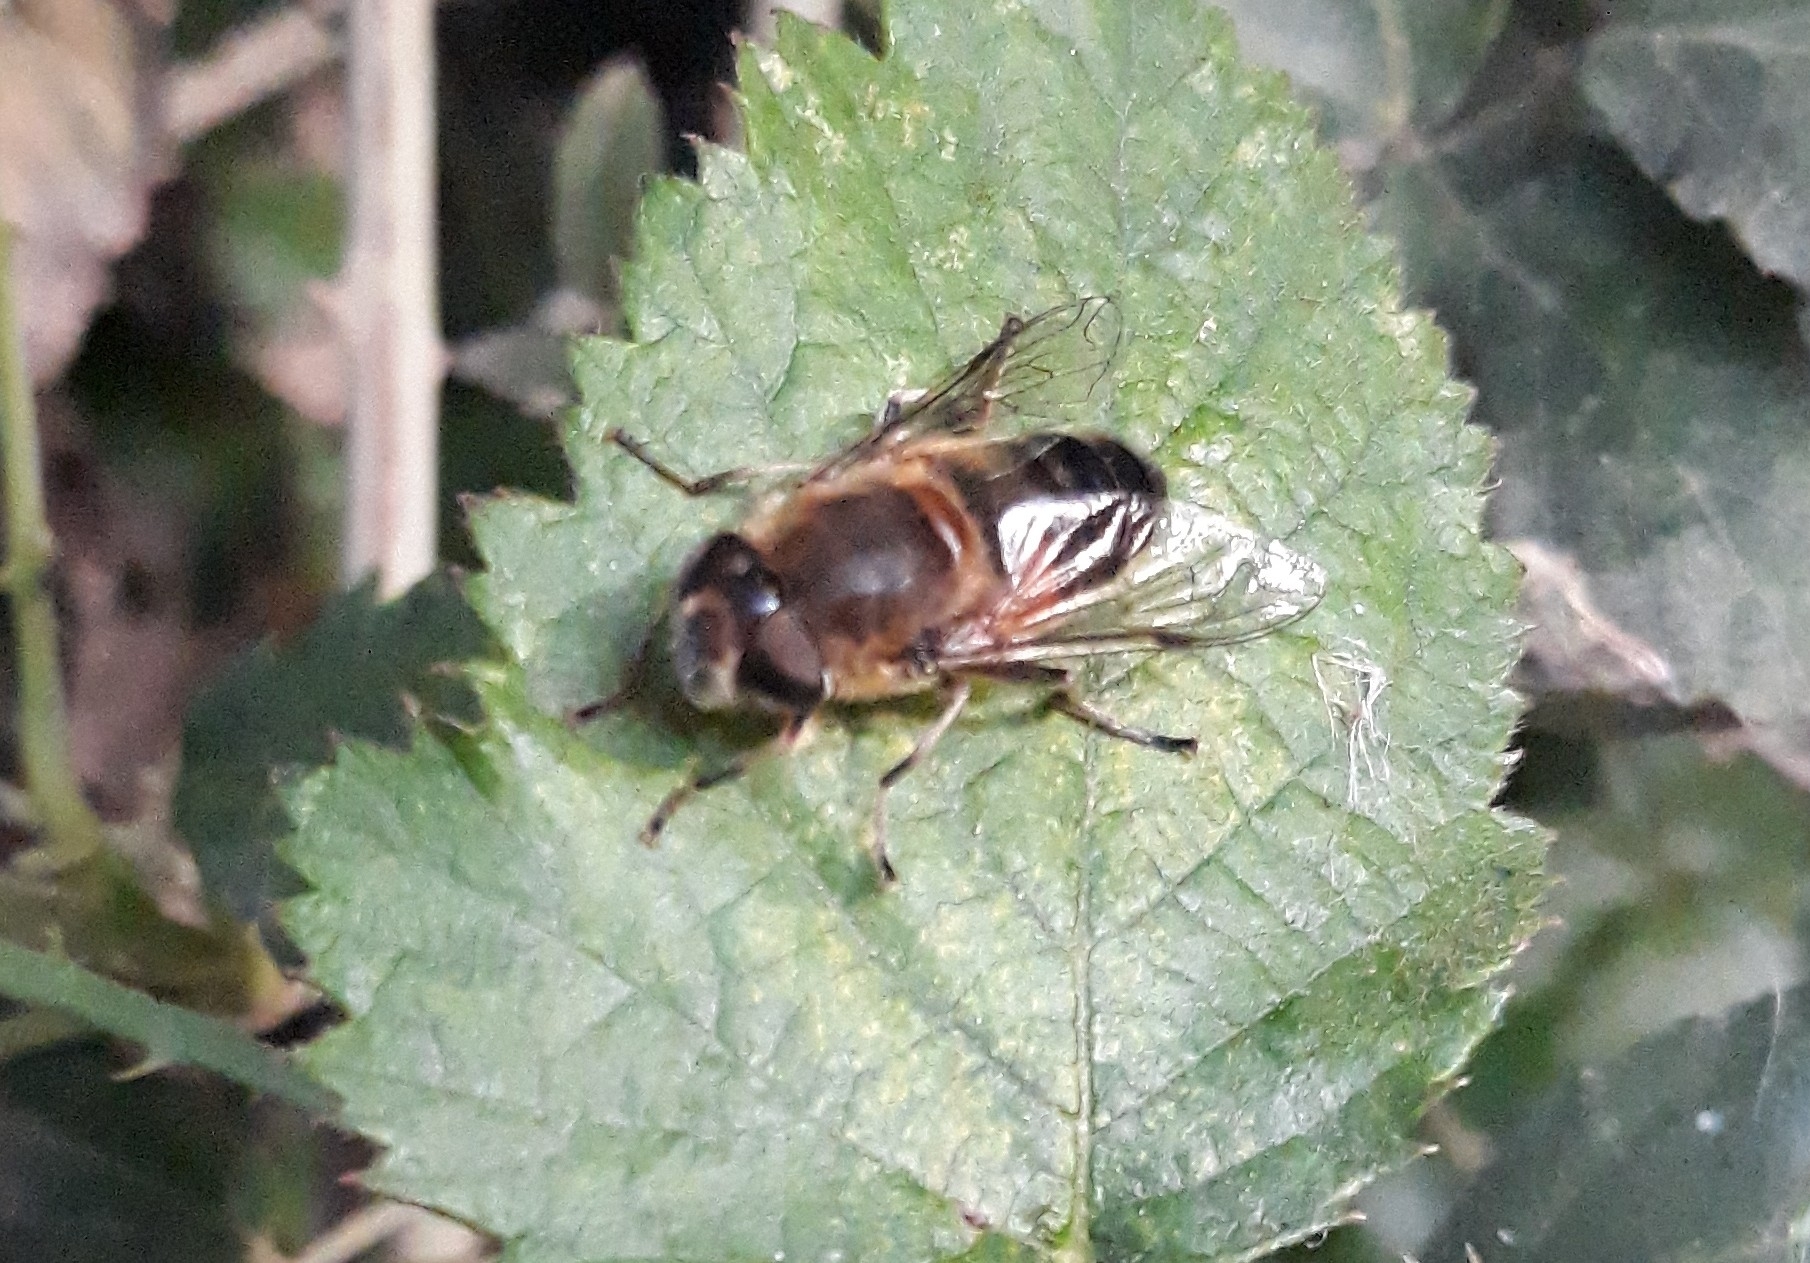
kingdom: Animalia
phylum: Arthropoda
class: Insecta
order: Diptera
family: Syrphidae
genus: Eristalis
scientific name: Eristalis pertinax
